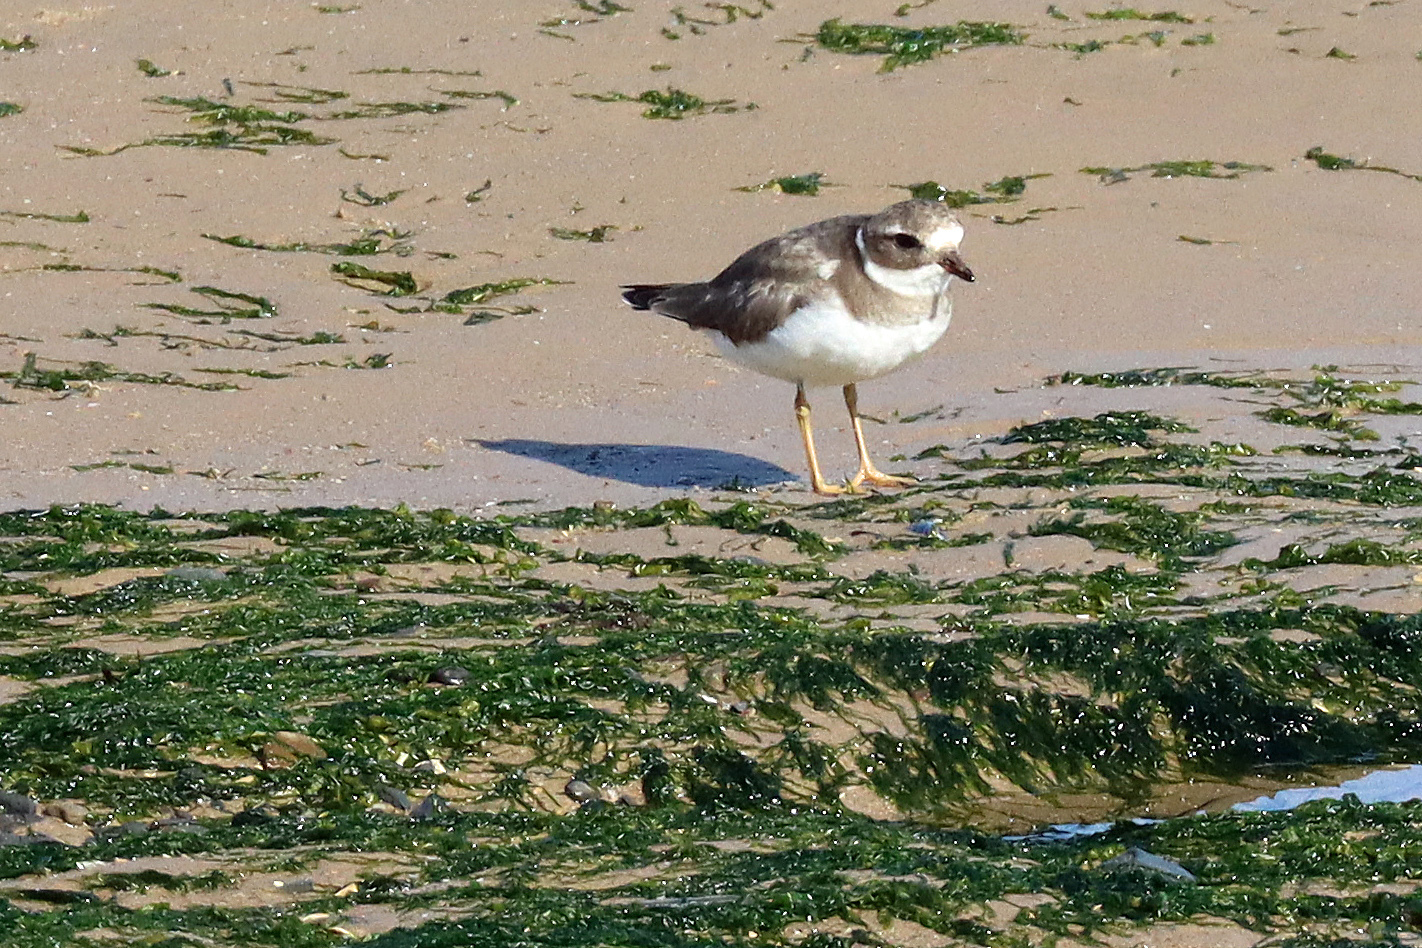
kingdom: Animalia
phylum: Chordata
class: Aves
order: Charadriiformes
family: Charadriidae
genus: Charadrius
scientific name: Charadrius hiaticula
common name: Common ringed plover
